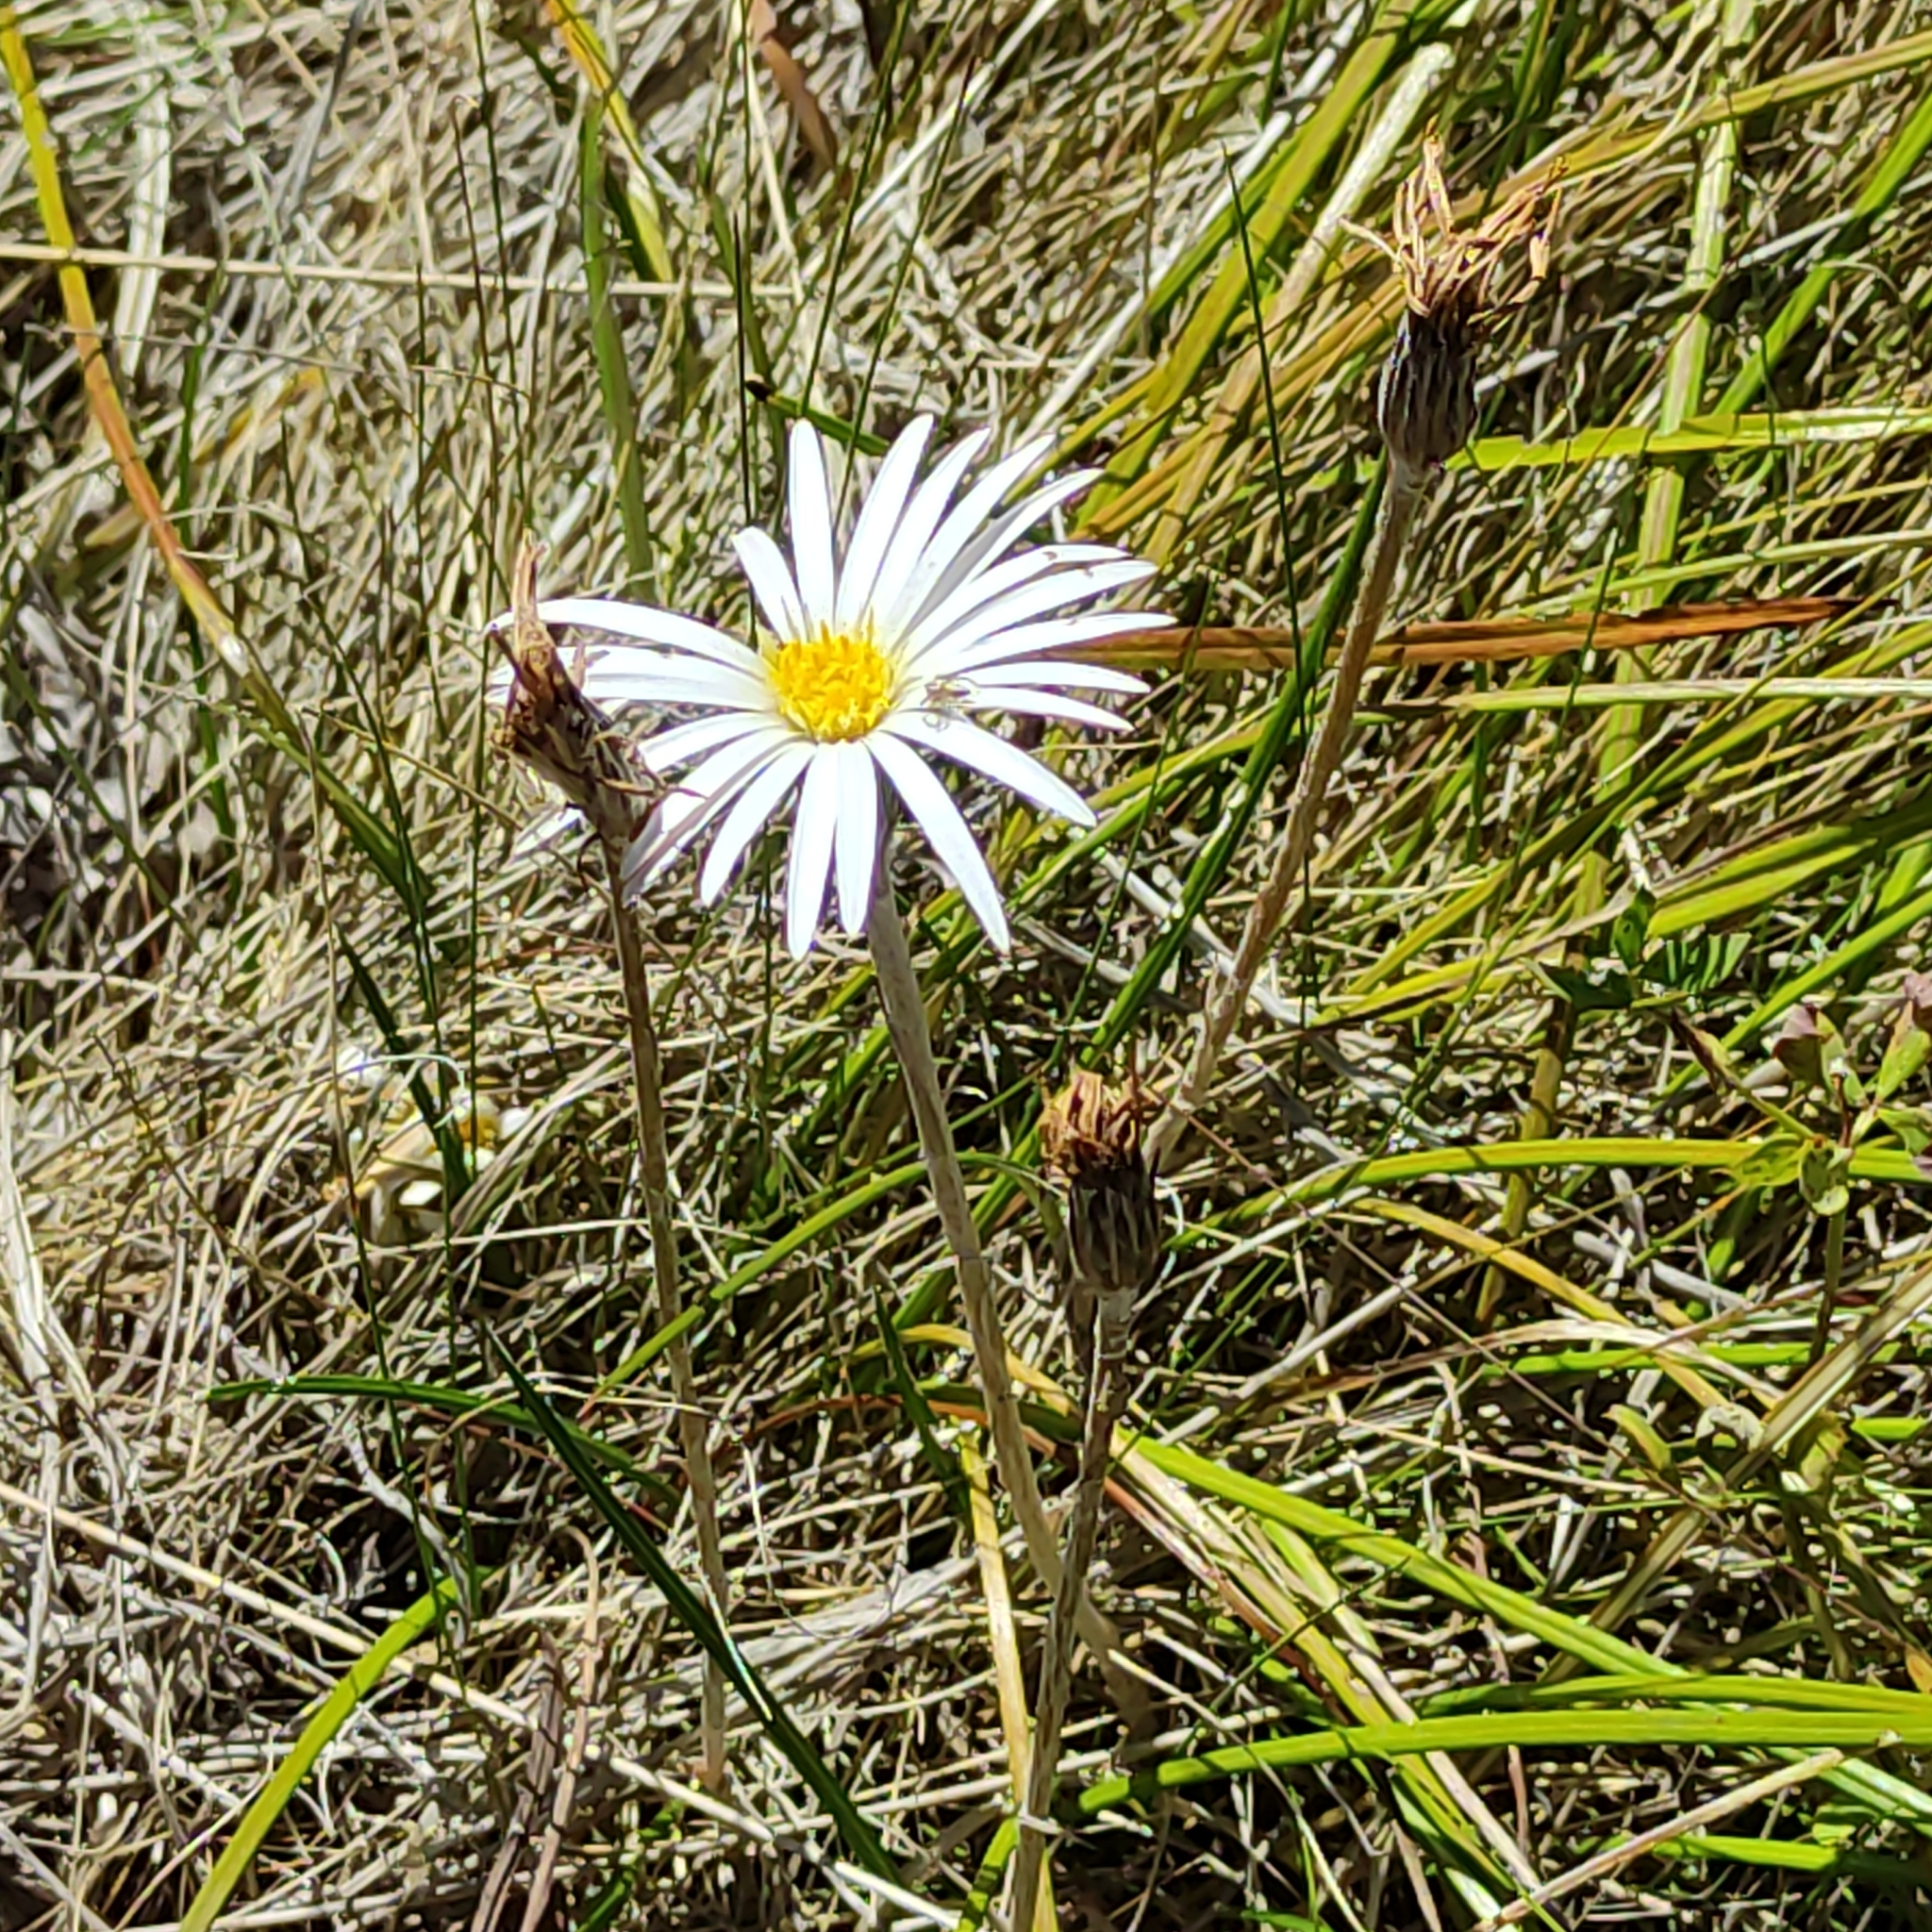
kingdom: Plantae
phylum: Tracheophyta
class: Magnoliopsida
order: Asterales
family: Asteraceae
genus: Celmisia
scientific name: Celmisia gracilenta
